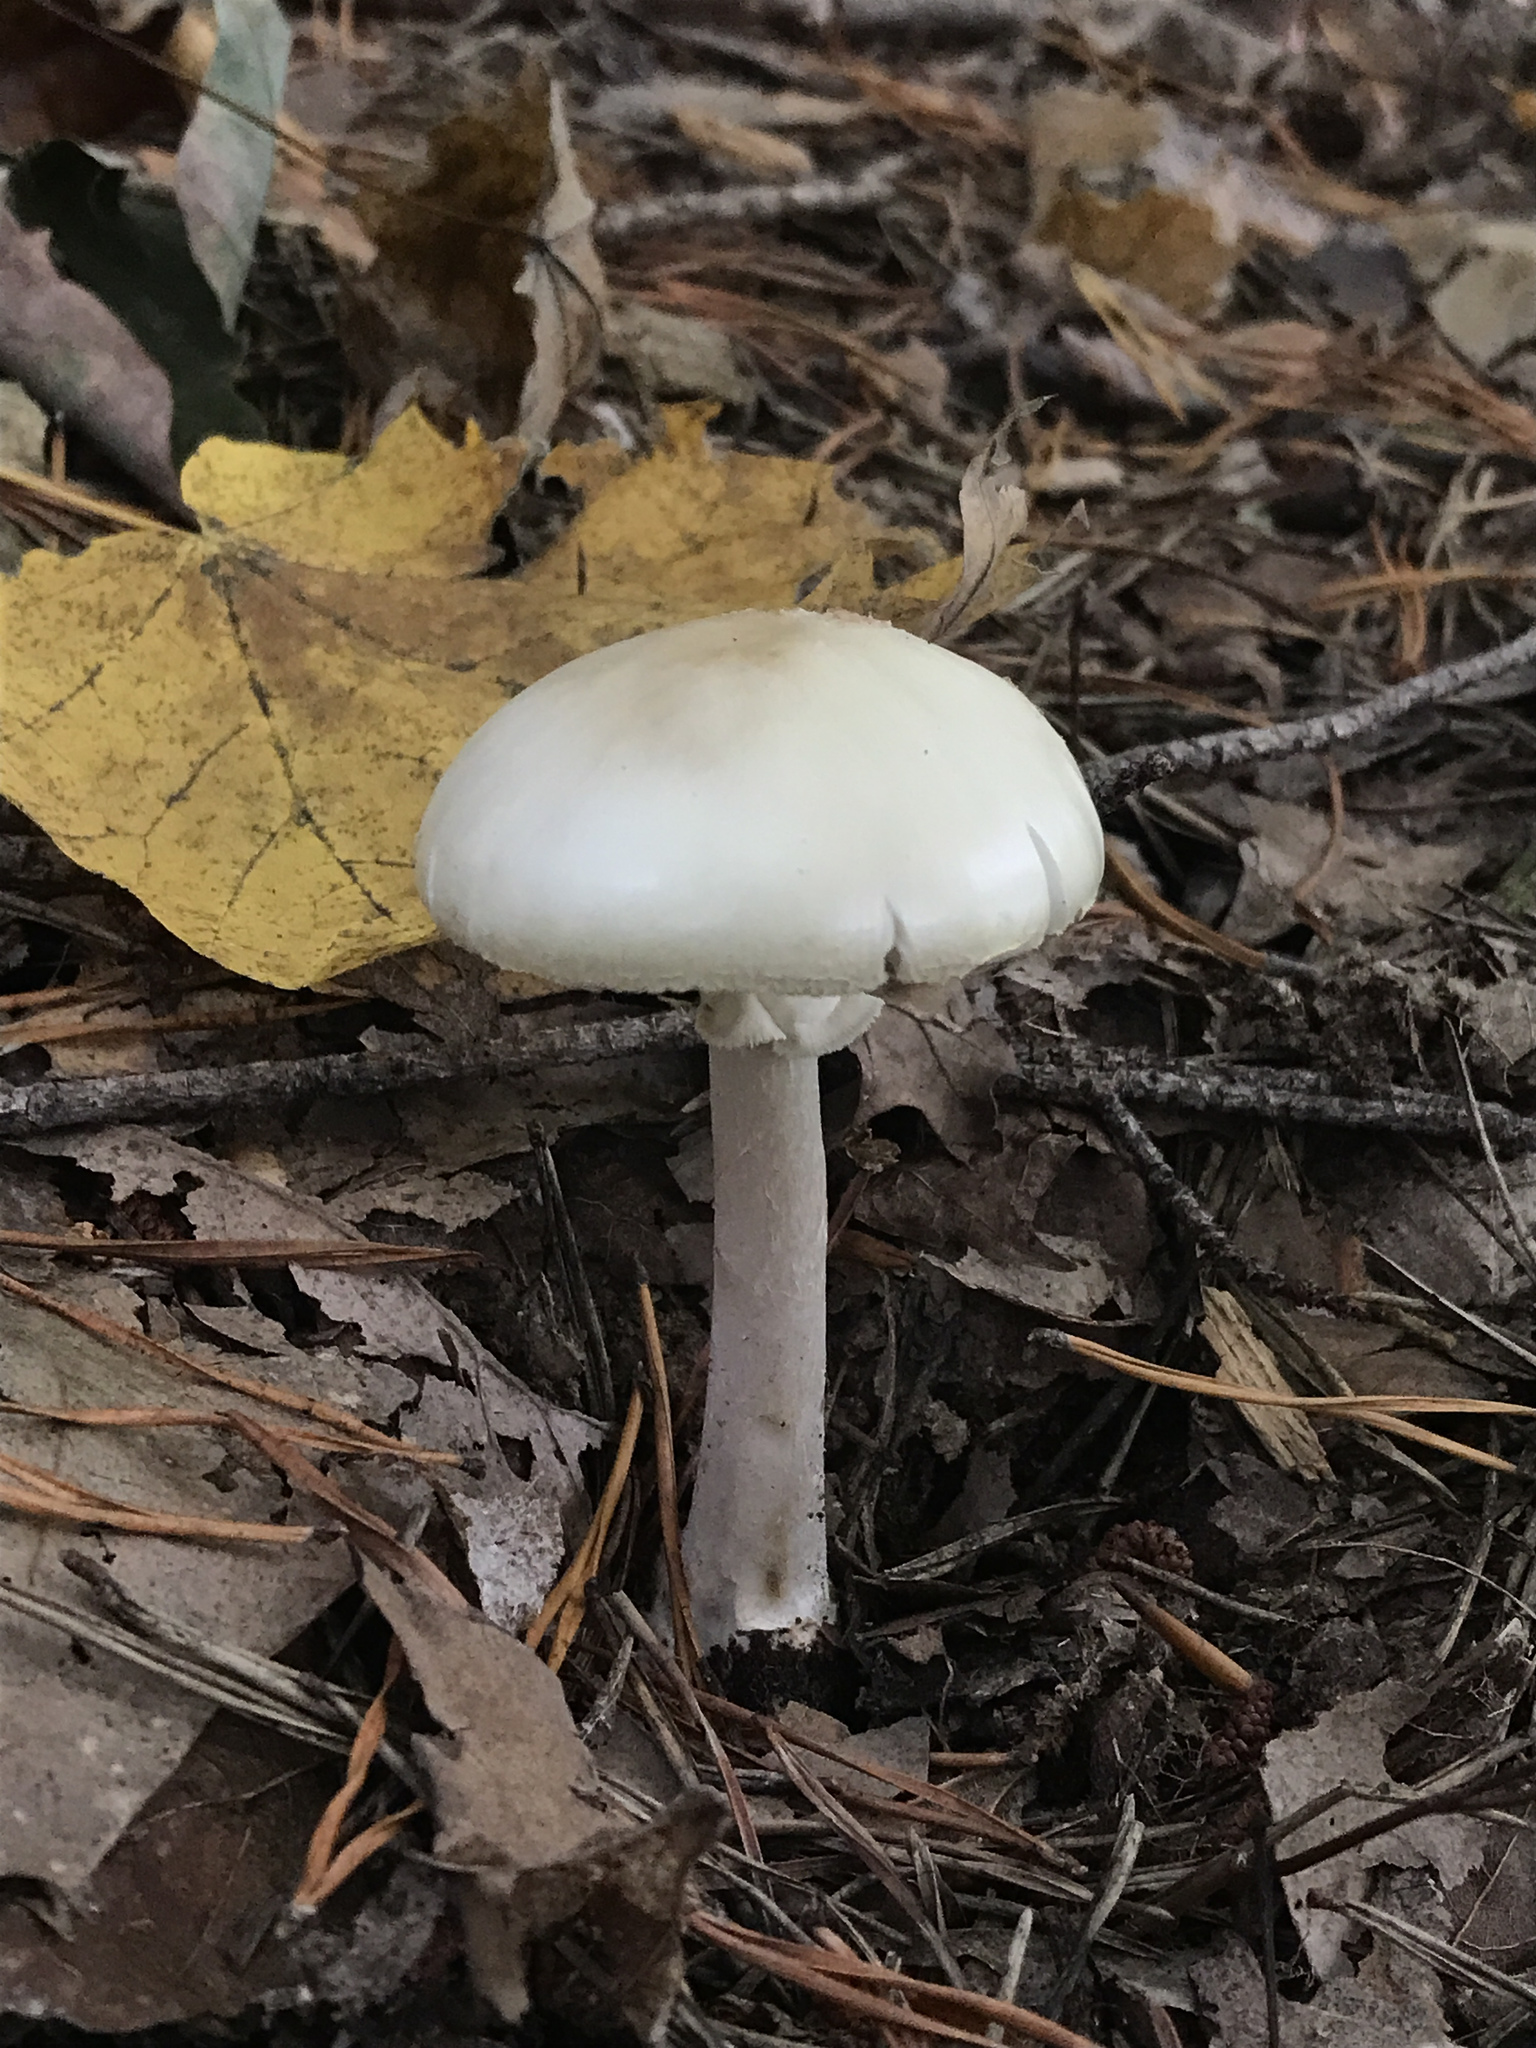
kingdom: Fungi
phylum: Basidiomycota
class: Agaricomycetes
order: Agaricales
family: Amanitaceae
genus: Amanita
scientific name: Amanita lavendula
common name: Coker's lavender staining amanita
